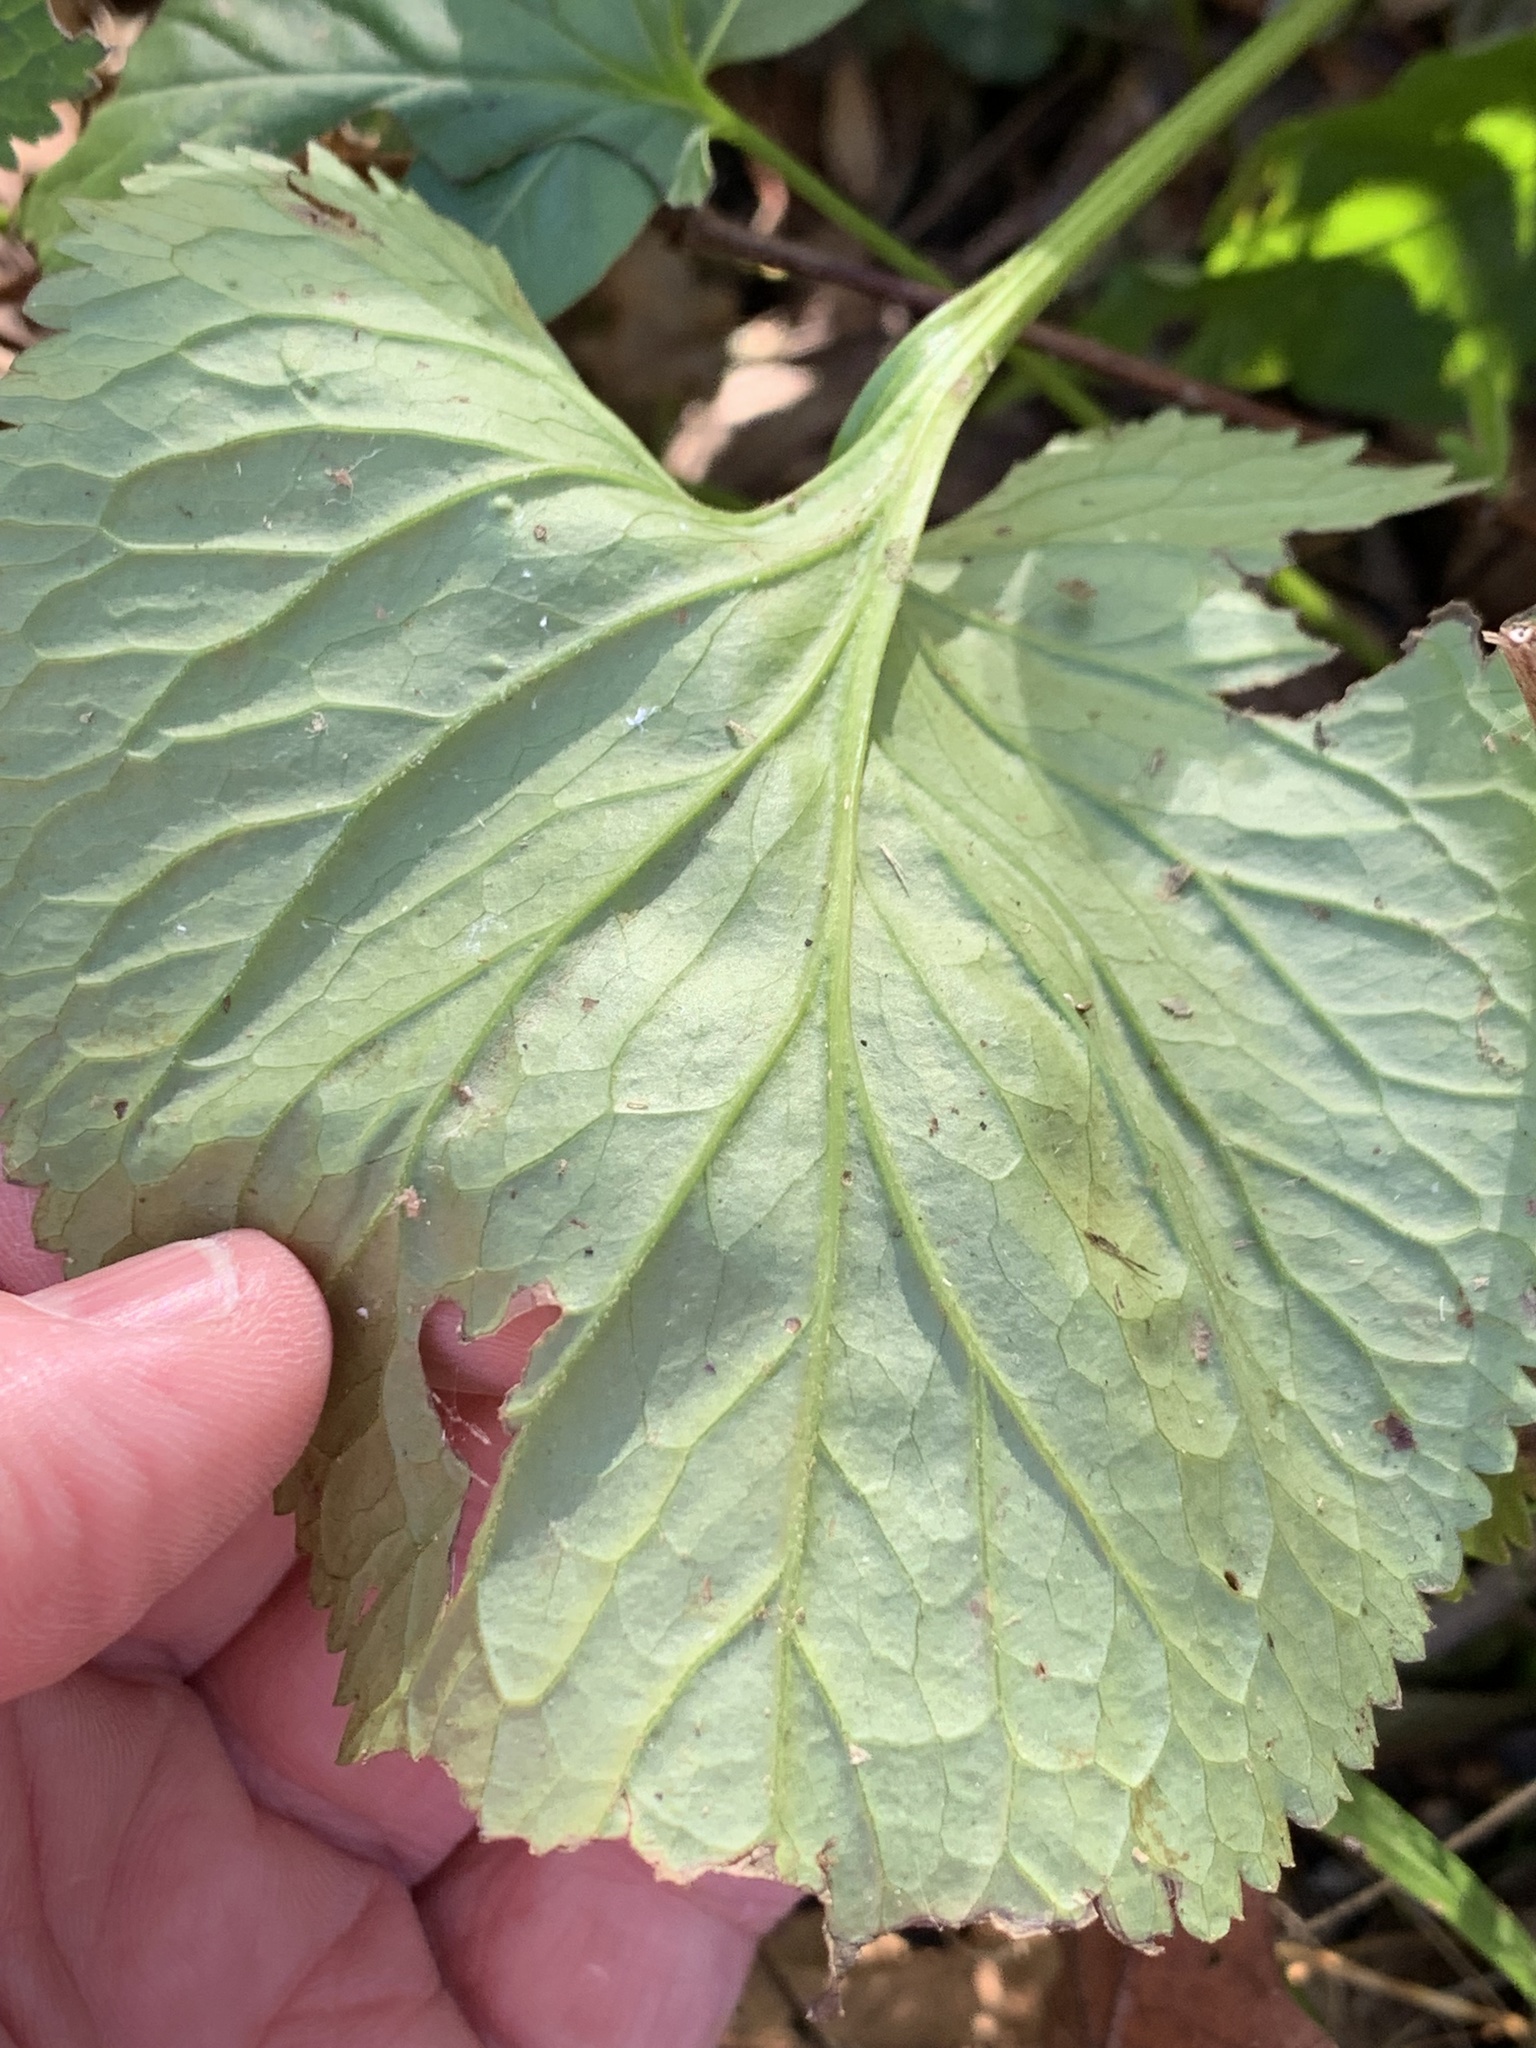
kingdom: Animalia
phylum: Arthropoda
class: Insecta
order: Lepidoptera
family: Gracillariidae
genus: Phyllocnistis
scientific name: Phyllocnistis insignis
